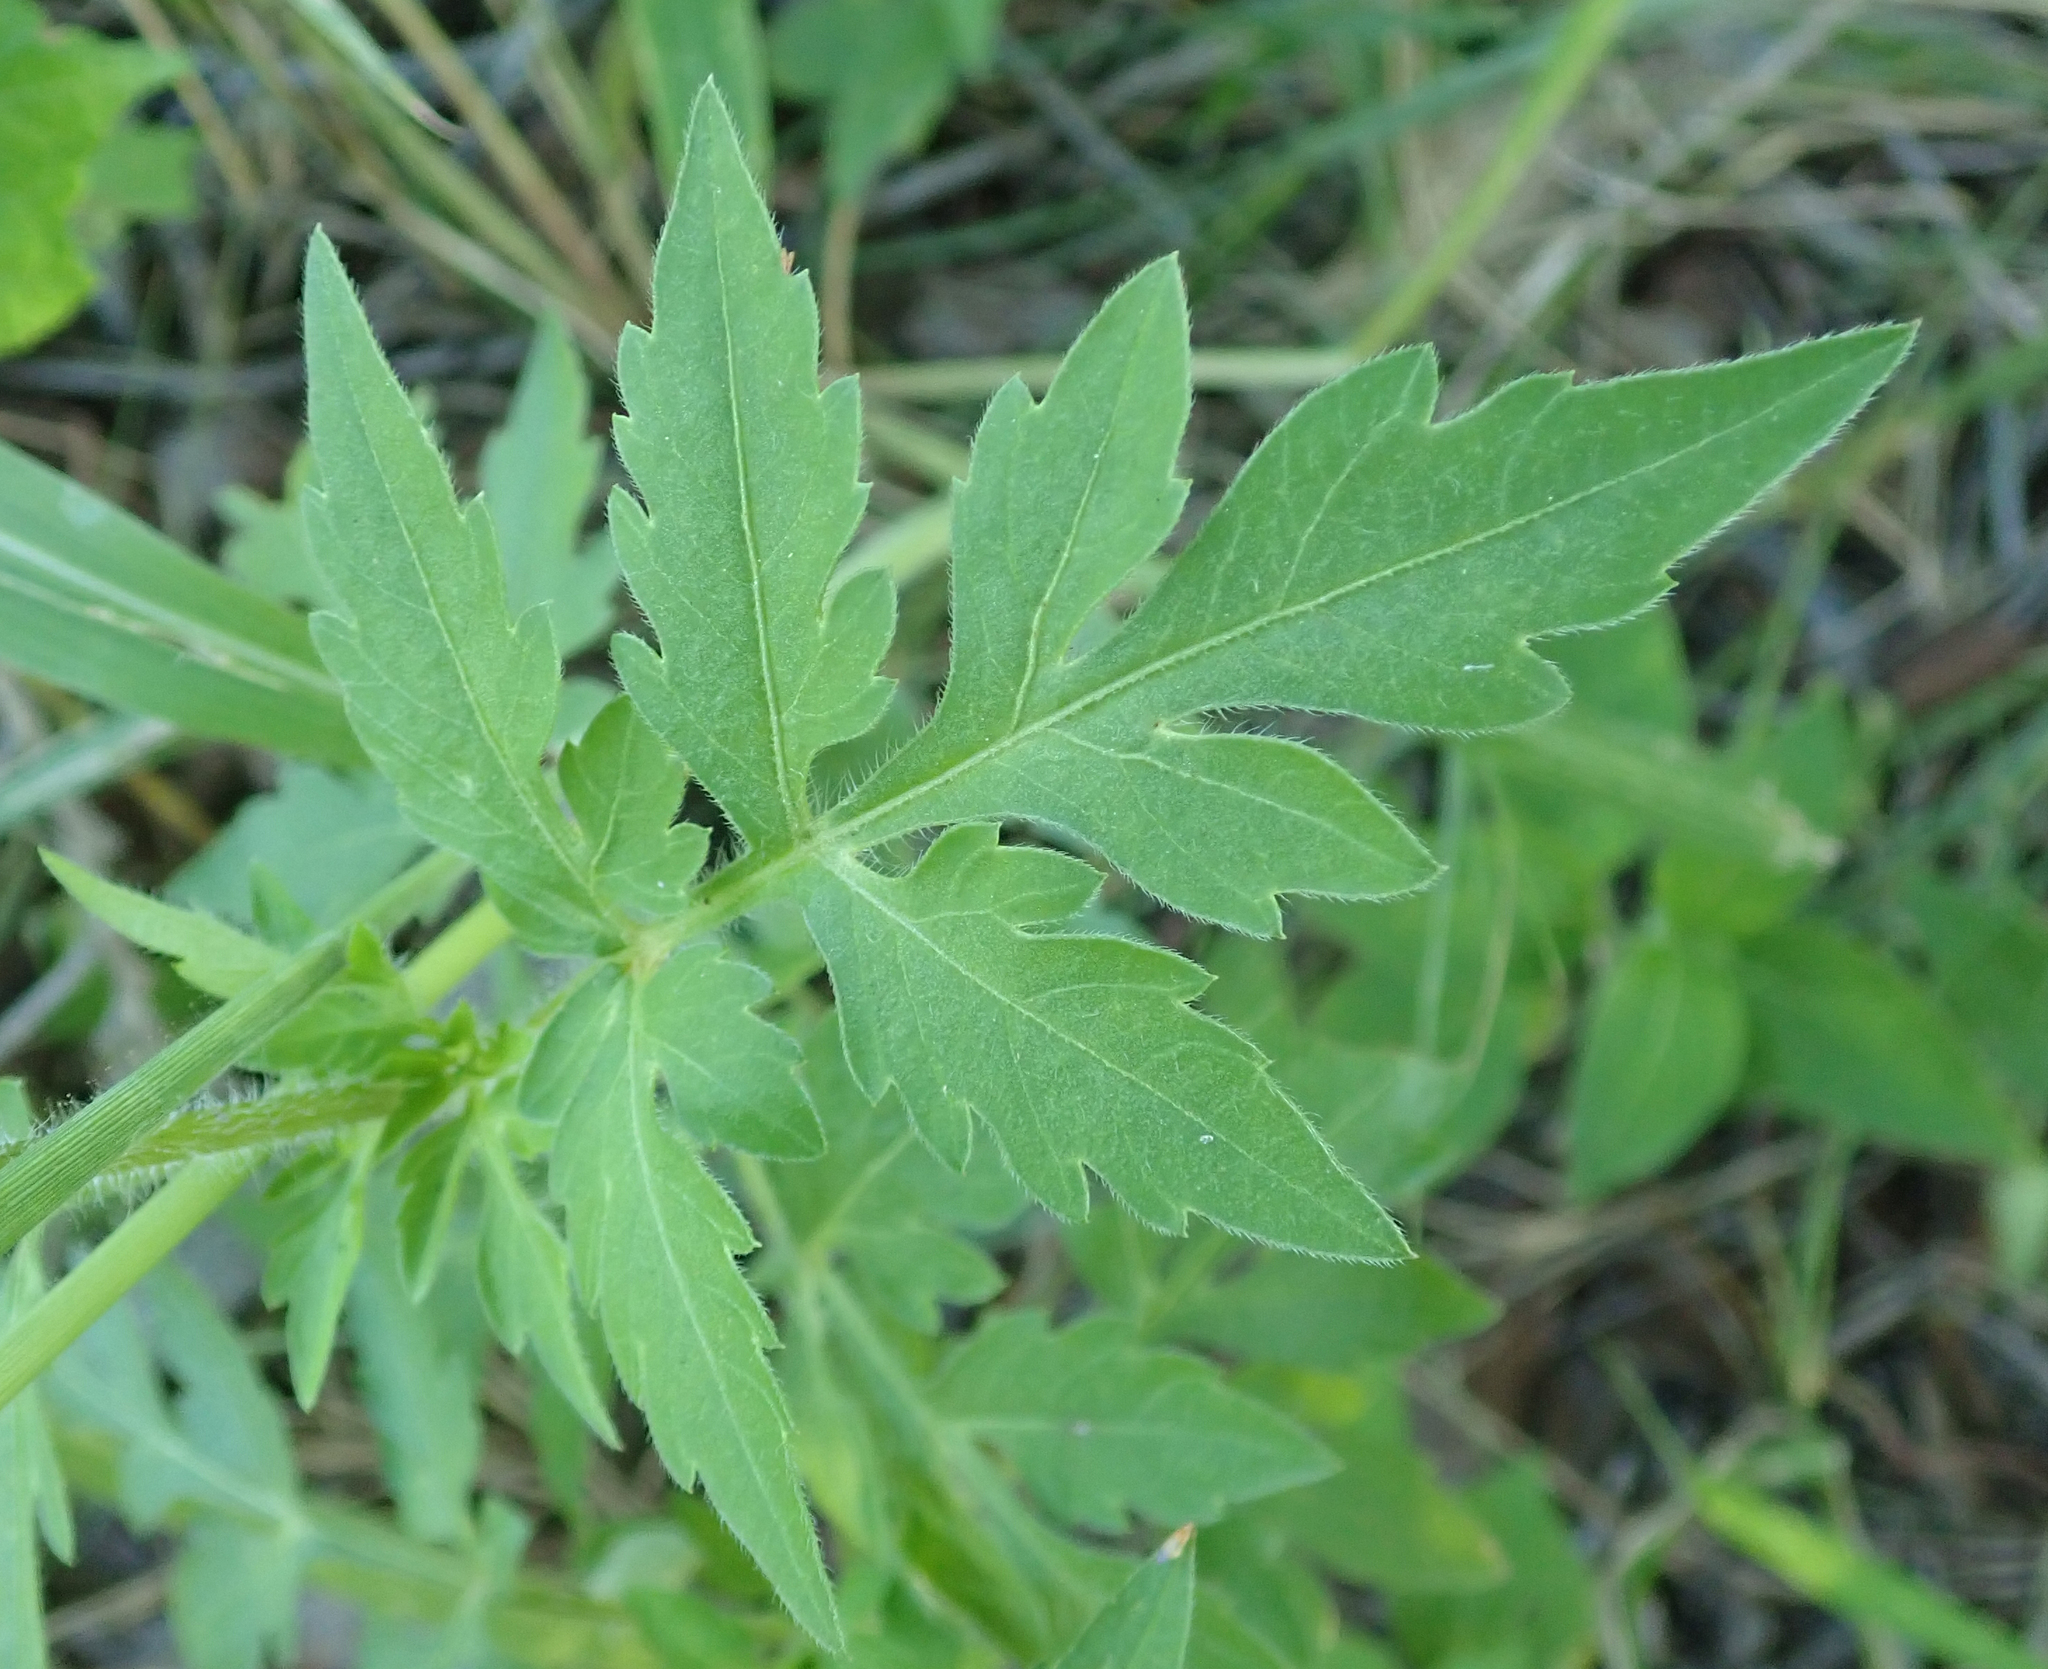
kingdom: Plantae
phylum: Tracheophyta
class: Magnoliopsida
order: Asterales
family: Asteraceae
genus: Bidens
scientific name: Bidens schimperi
